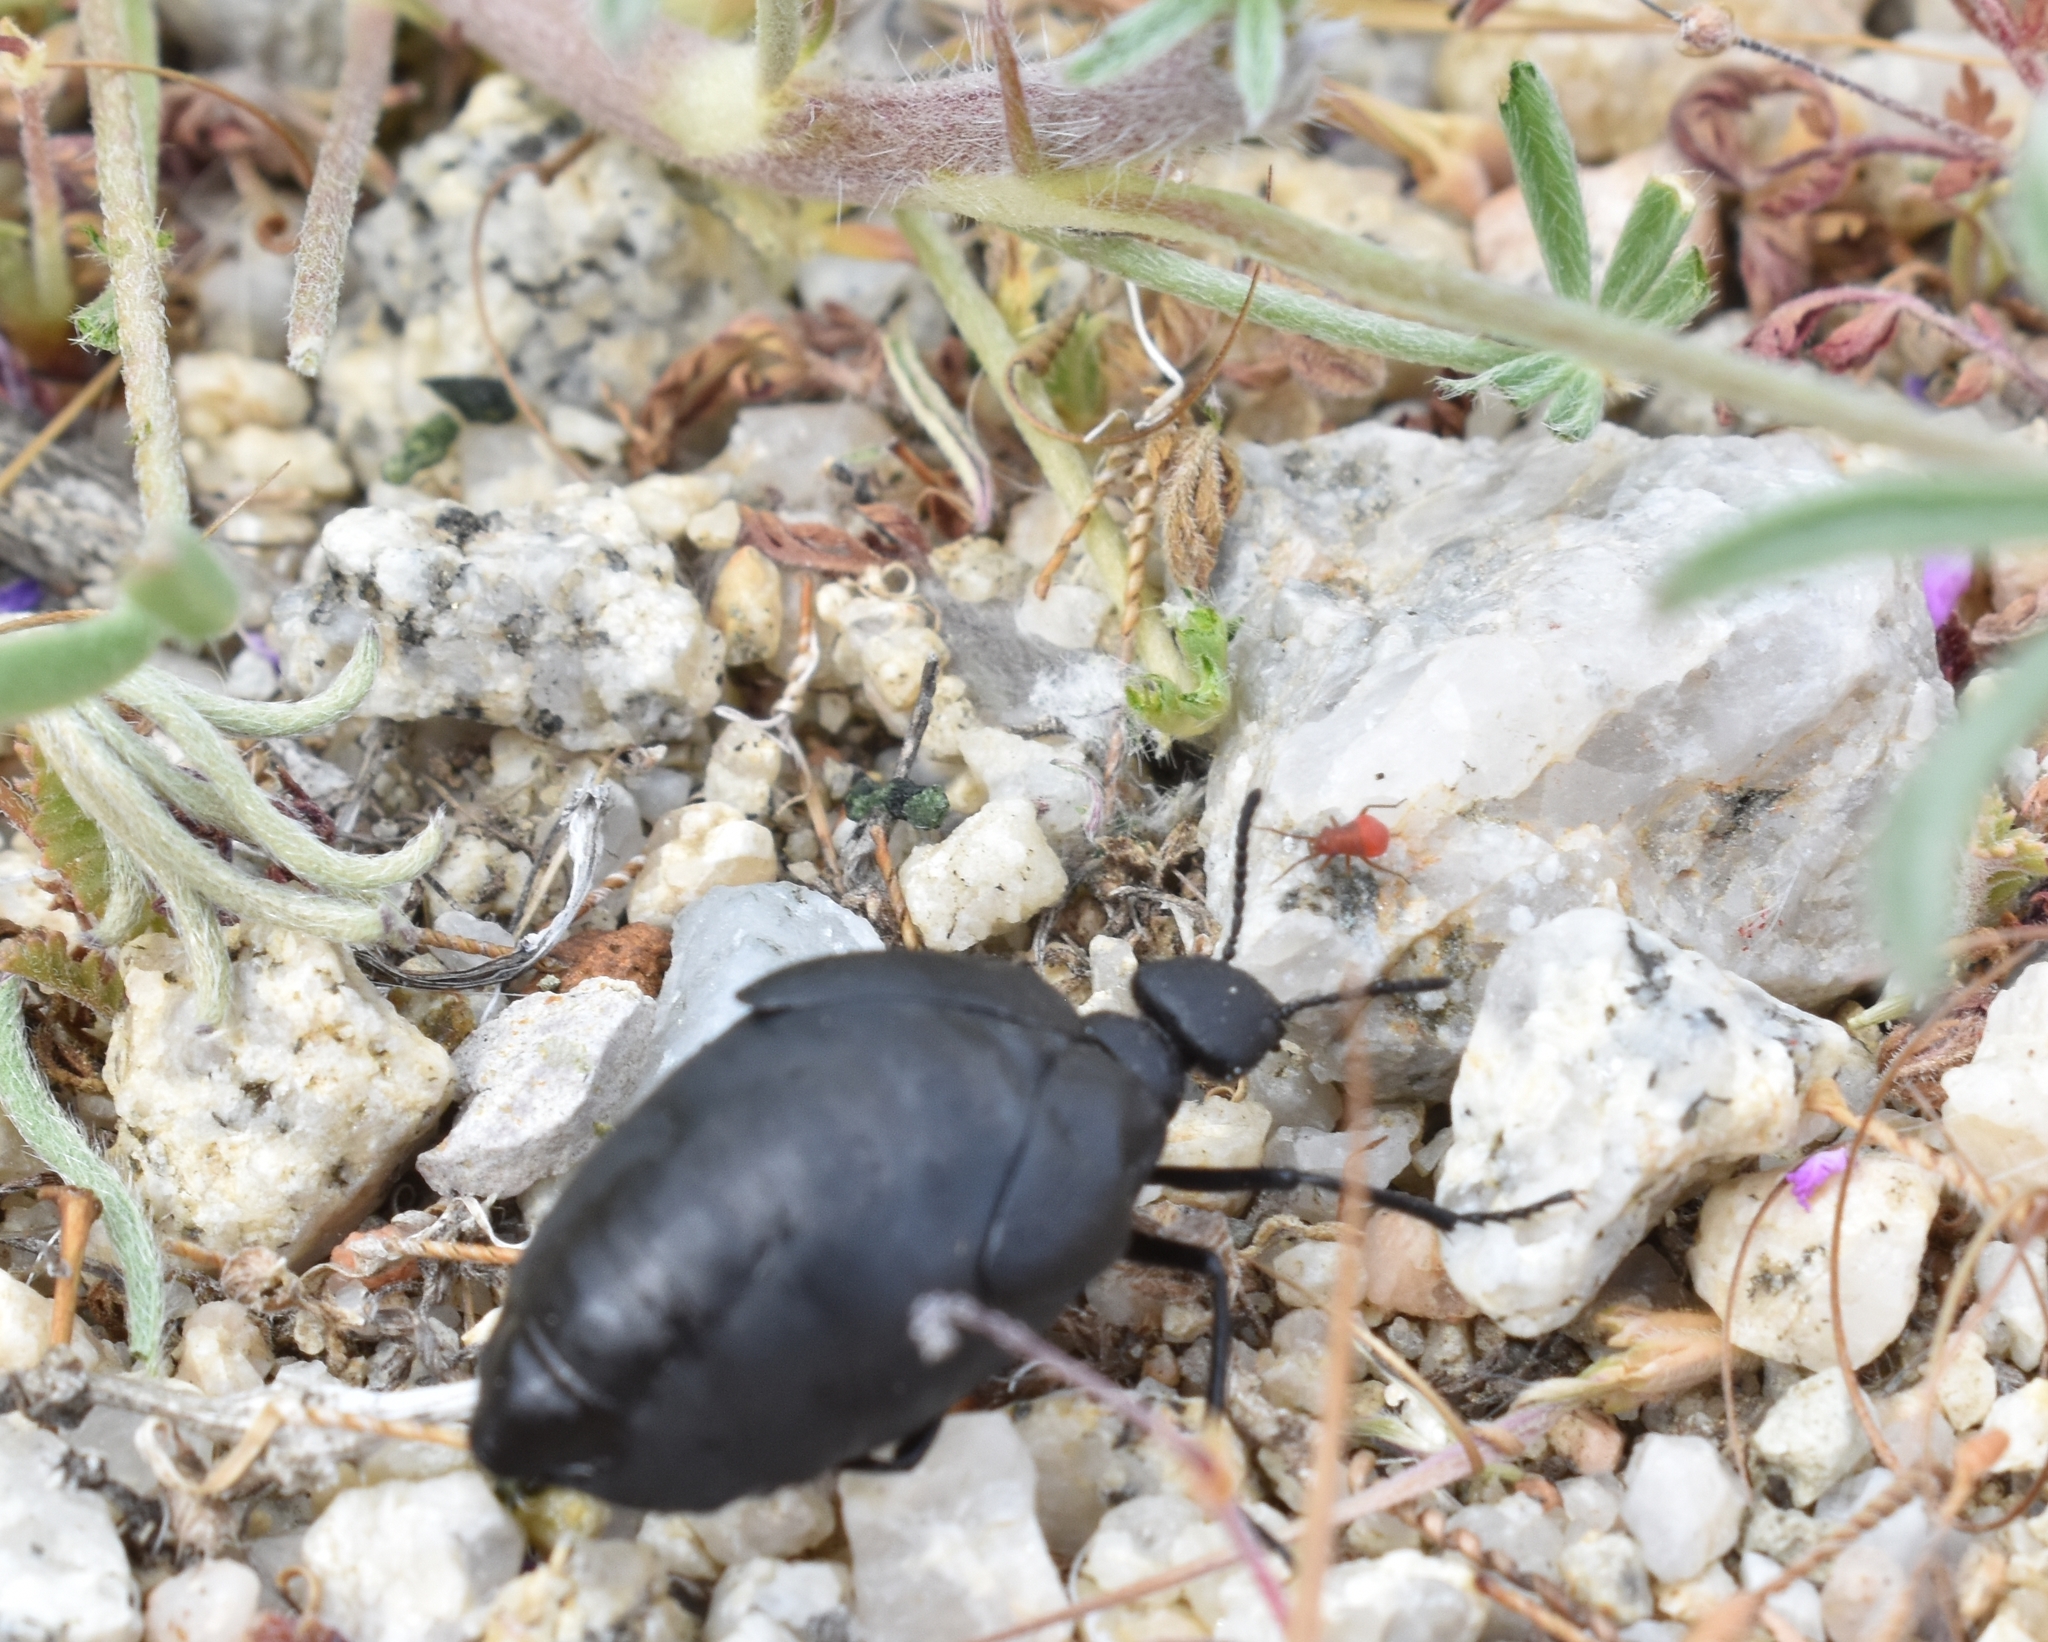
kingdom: Animalia
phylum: Arthropoda
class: Insecta
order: Coleoptera
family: Meloidae
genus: Cordylospasta
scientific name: Cordylospasta opaca
